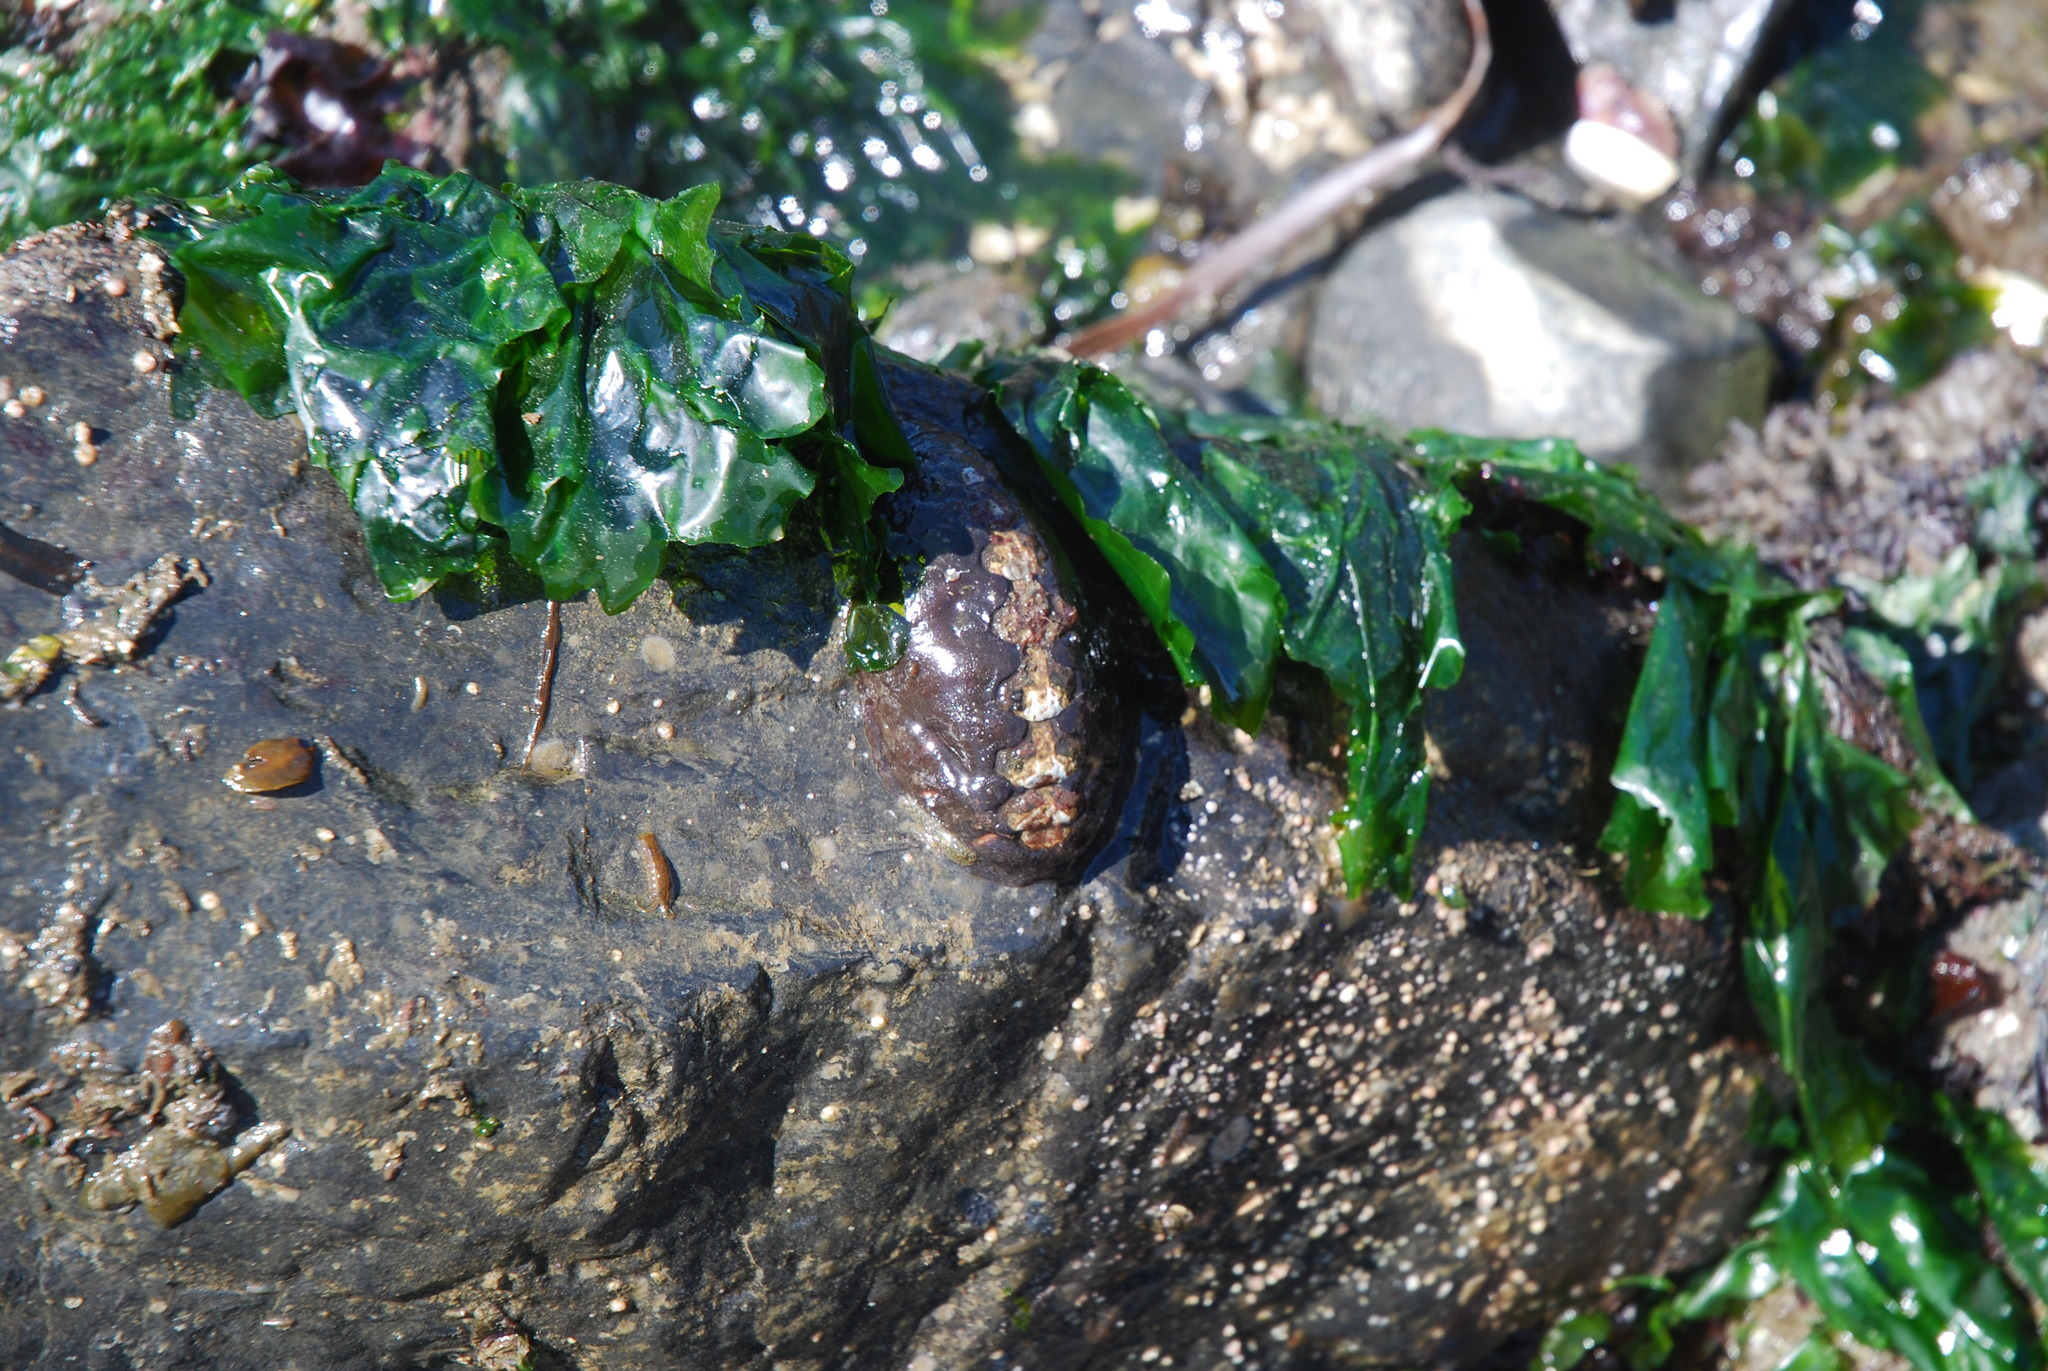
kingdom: Animalia
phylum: Mollusca
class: Polyplacophora
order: Chitonida
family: Mopaliidae
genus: Katharina
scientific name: Katharina tunicata
